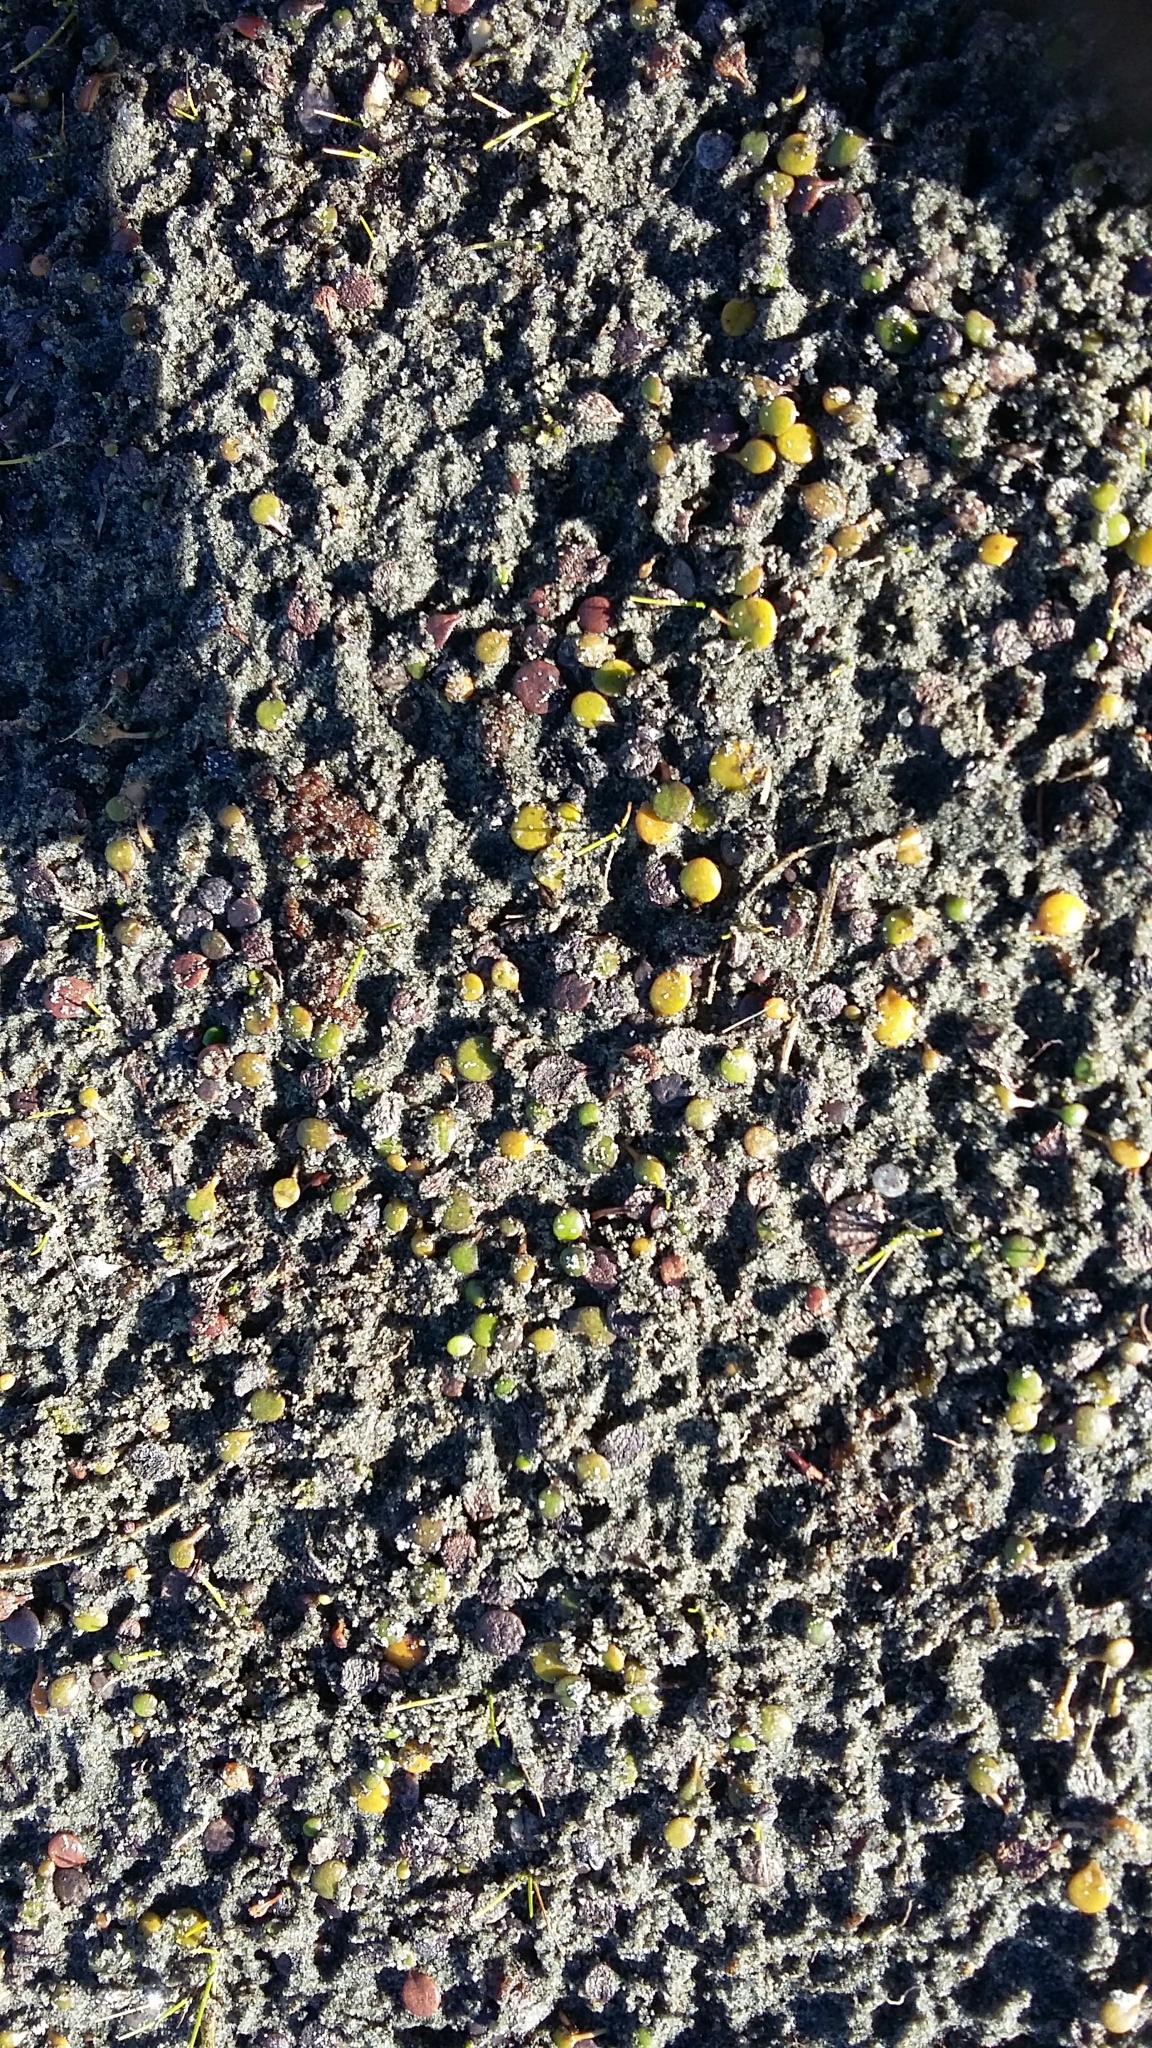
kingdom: Plantae
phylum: Tracheophyta
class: Magnoliopsida
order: Asterales
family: Goodeniaceae
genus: Goodenia
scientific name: Goodenia heenanii
